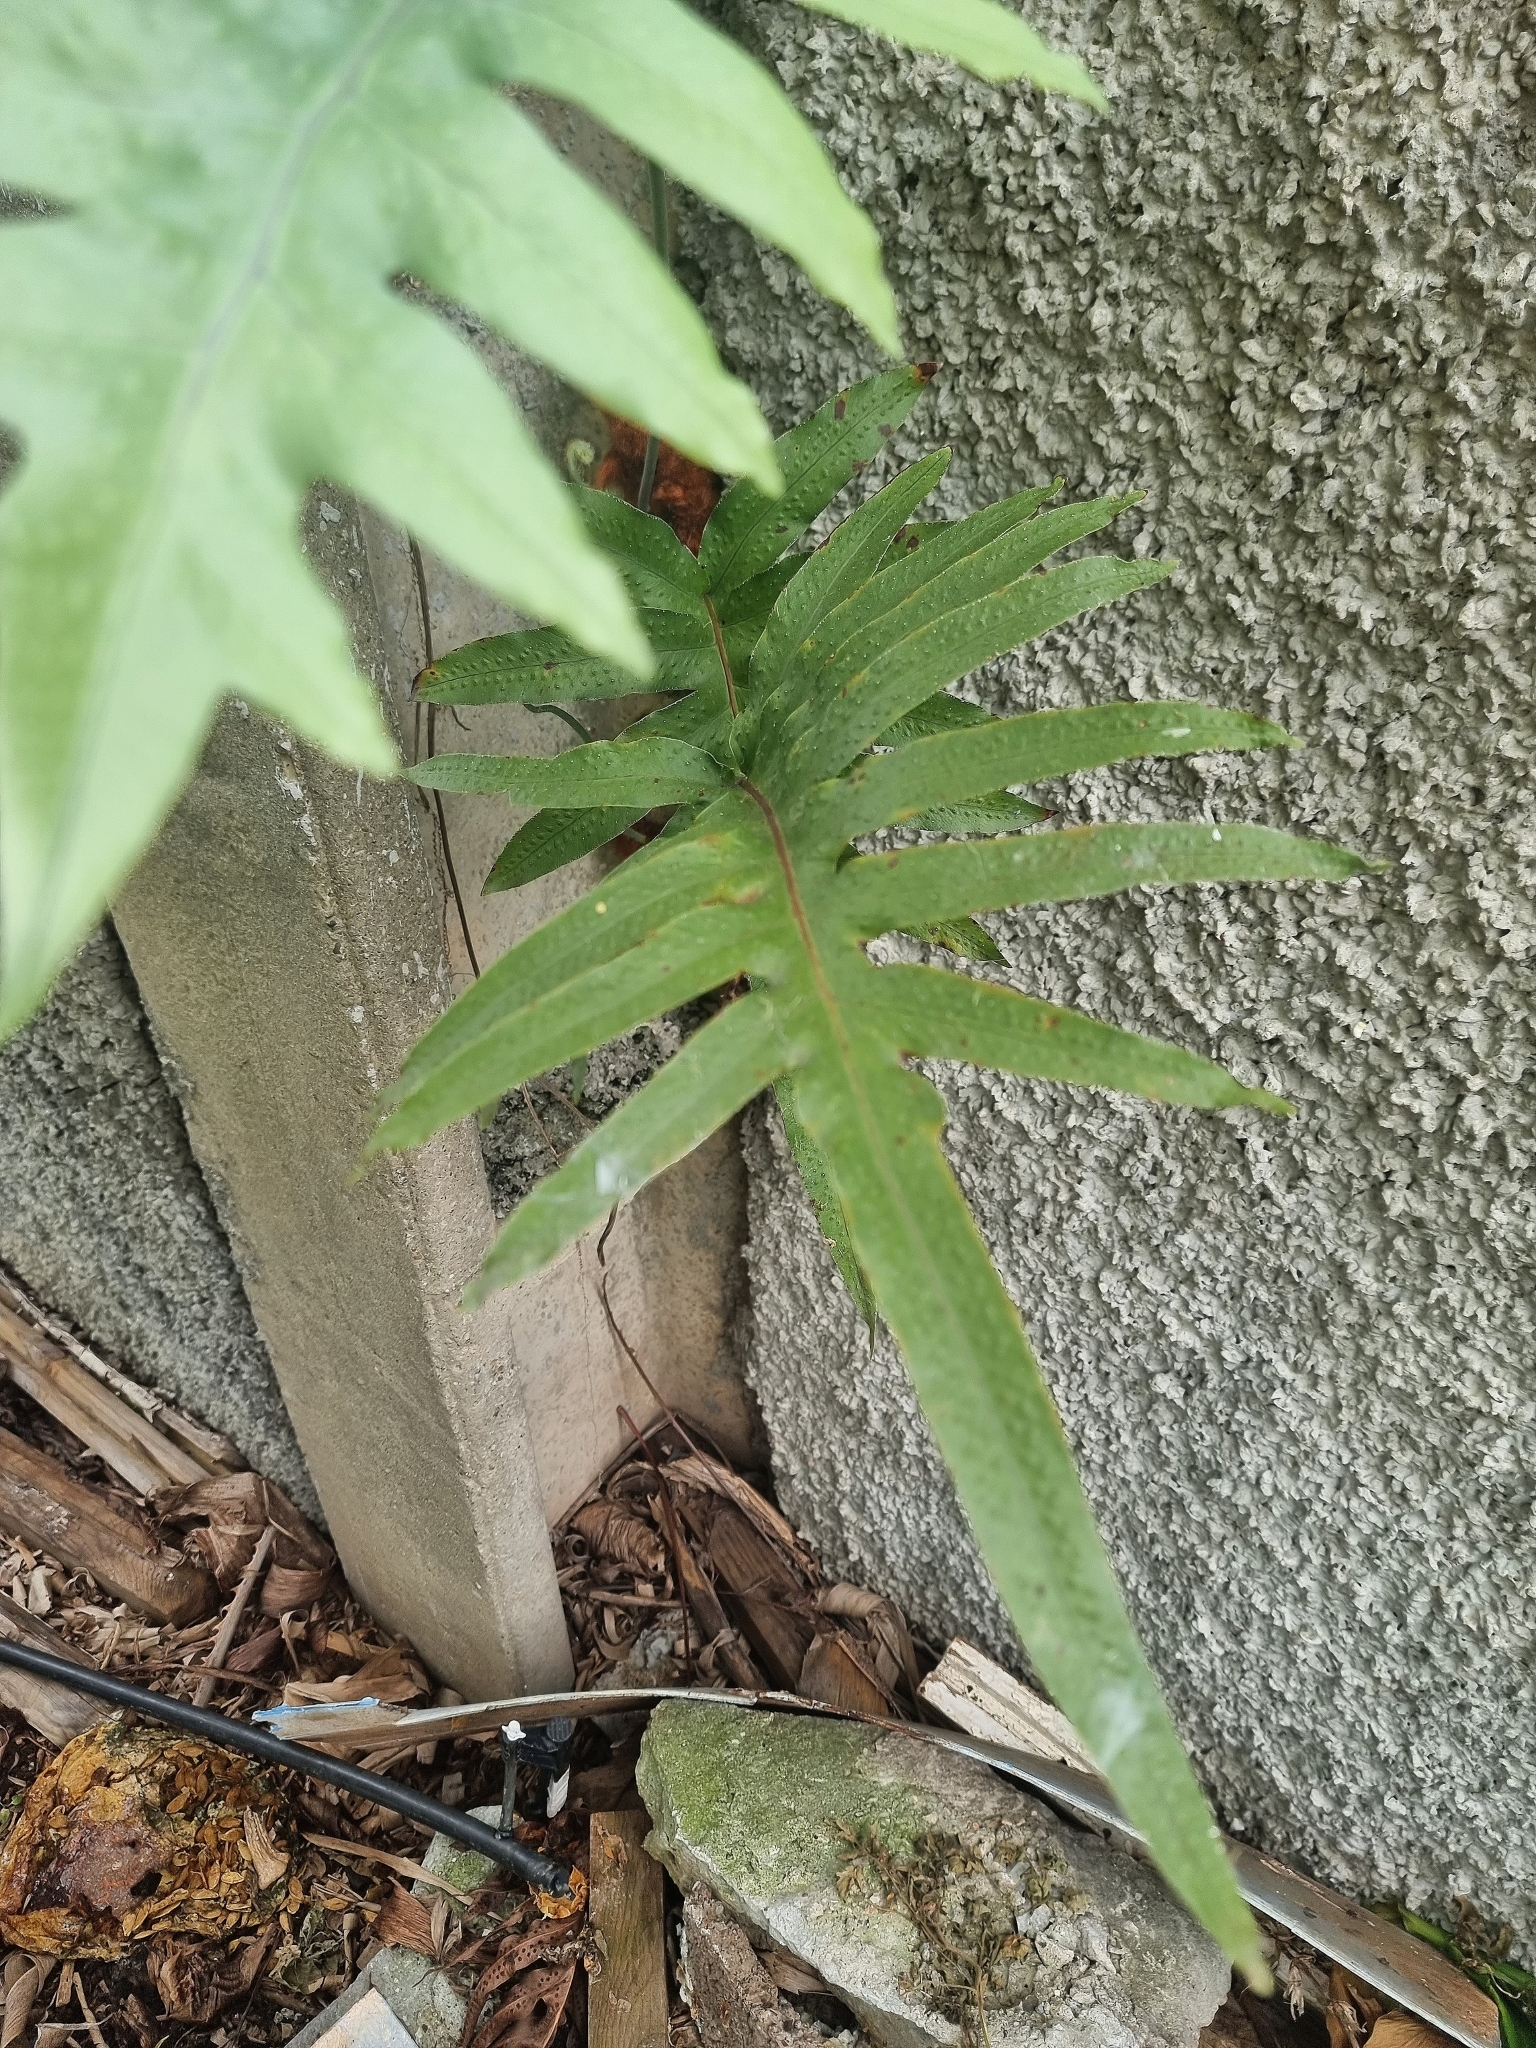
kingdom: Plantae
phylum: Tracheophyta
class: Polypodiopsida
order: Polypodiales
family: Polypodiaceae
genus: Phlebodium
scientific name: Phlebodium aureum
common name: Gold-foot fern
